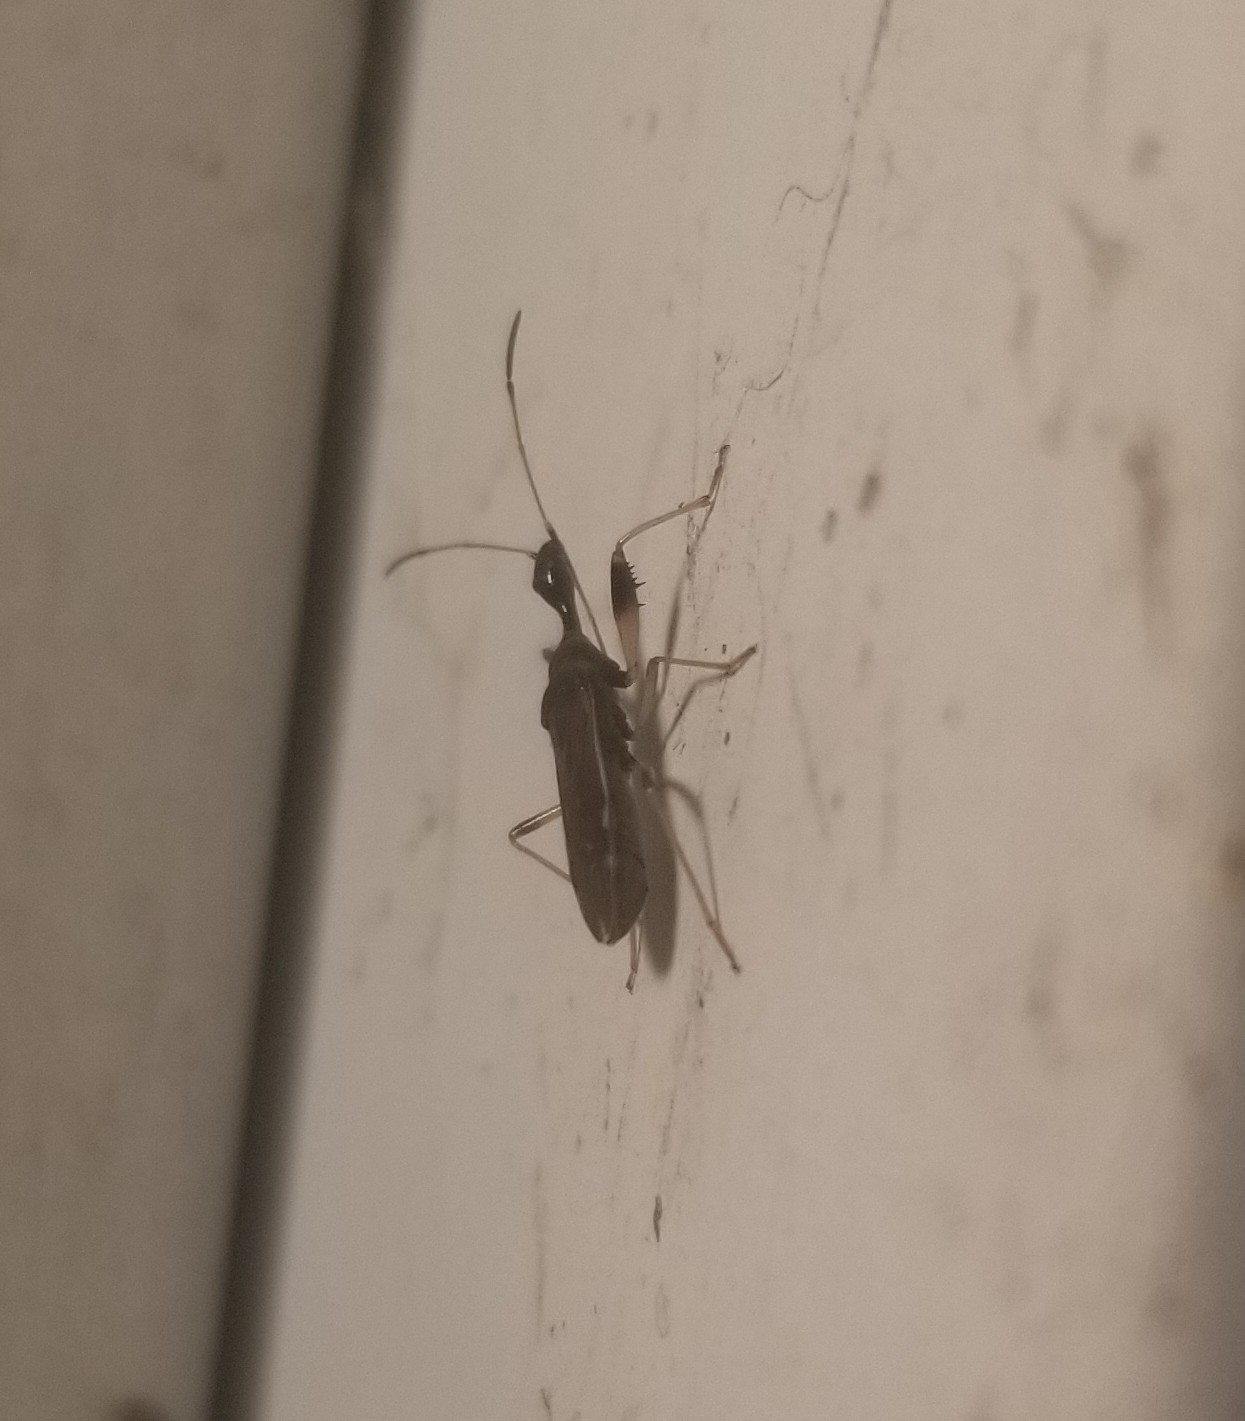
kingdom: Animalia
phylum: Arthropoda
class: Insecta
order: Hemiptera
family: Rhyparochromidae
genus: Myodocha
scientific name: Myodocha serripes
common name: Long-necked seed bug
